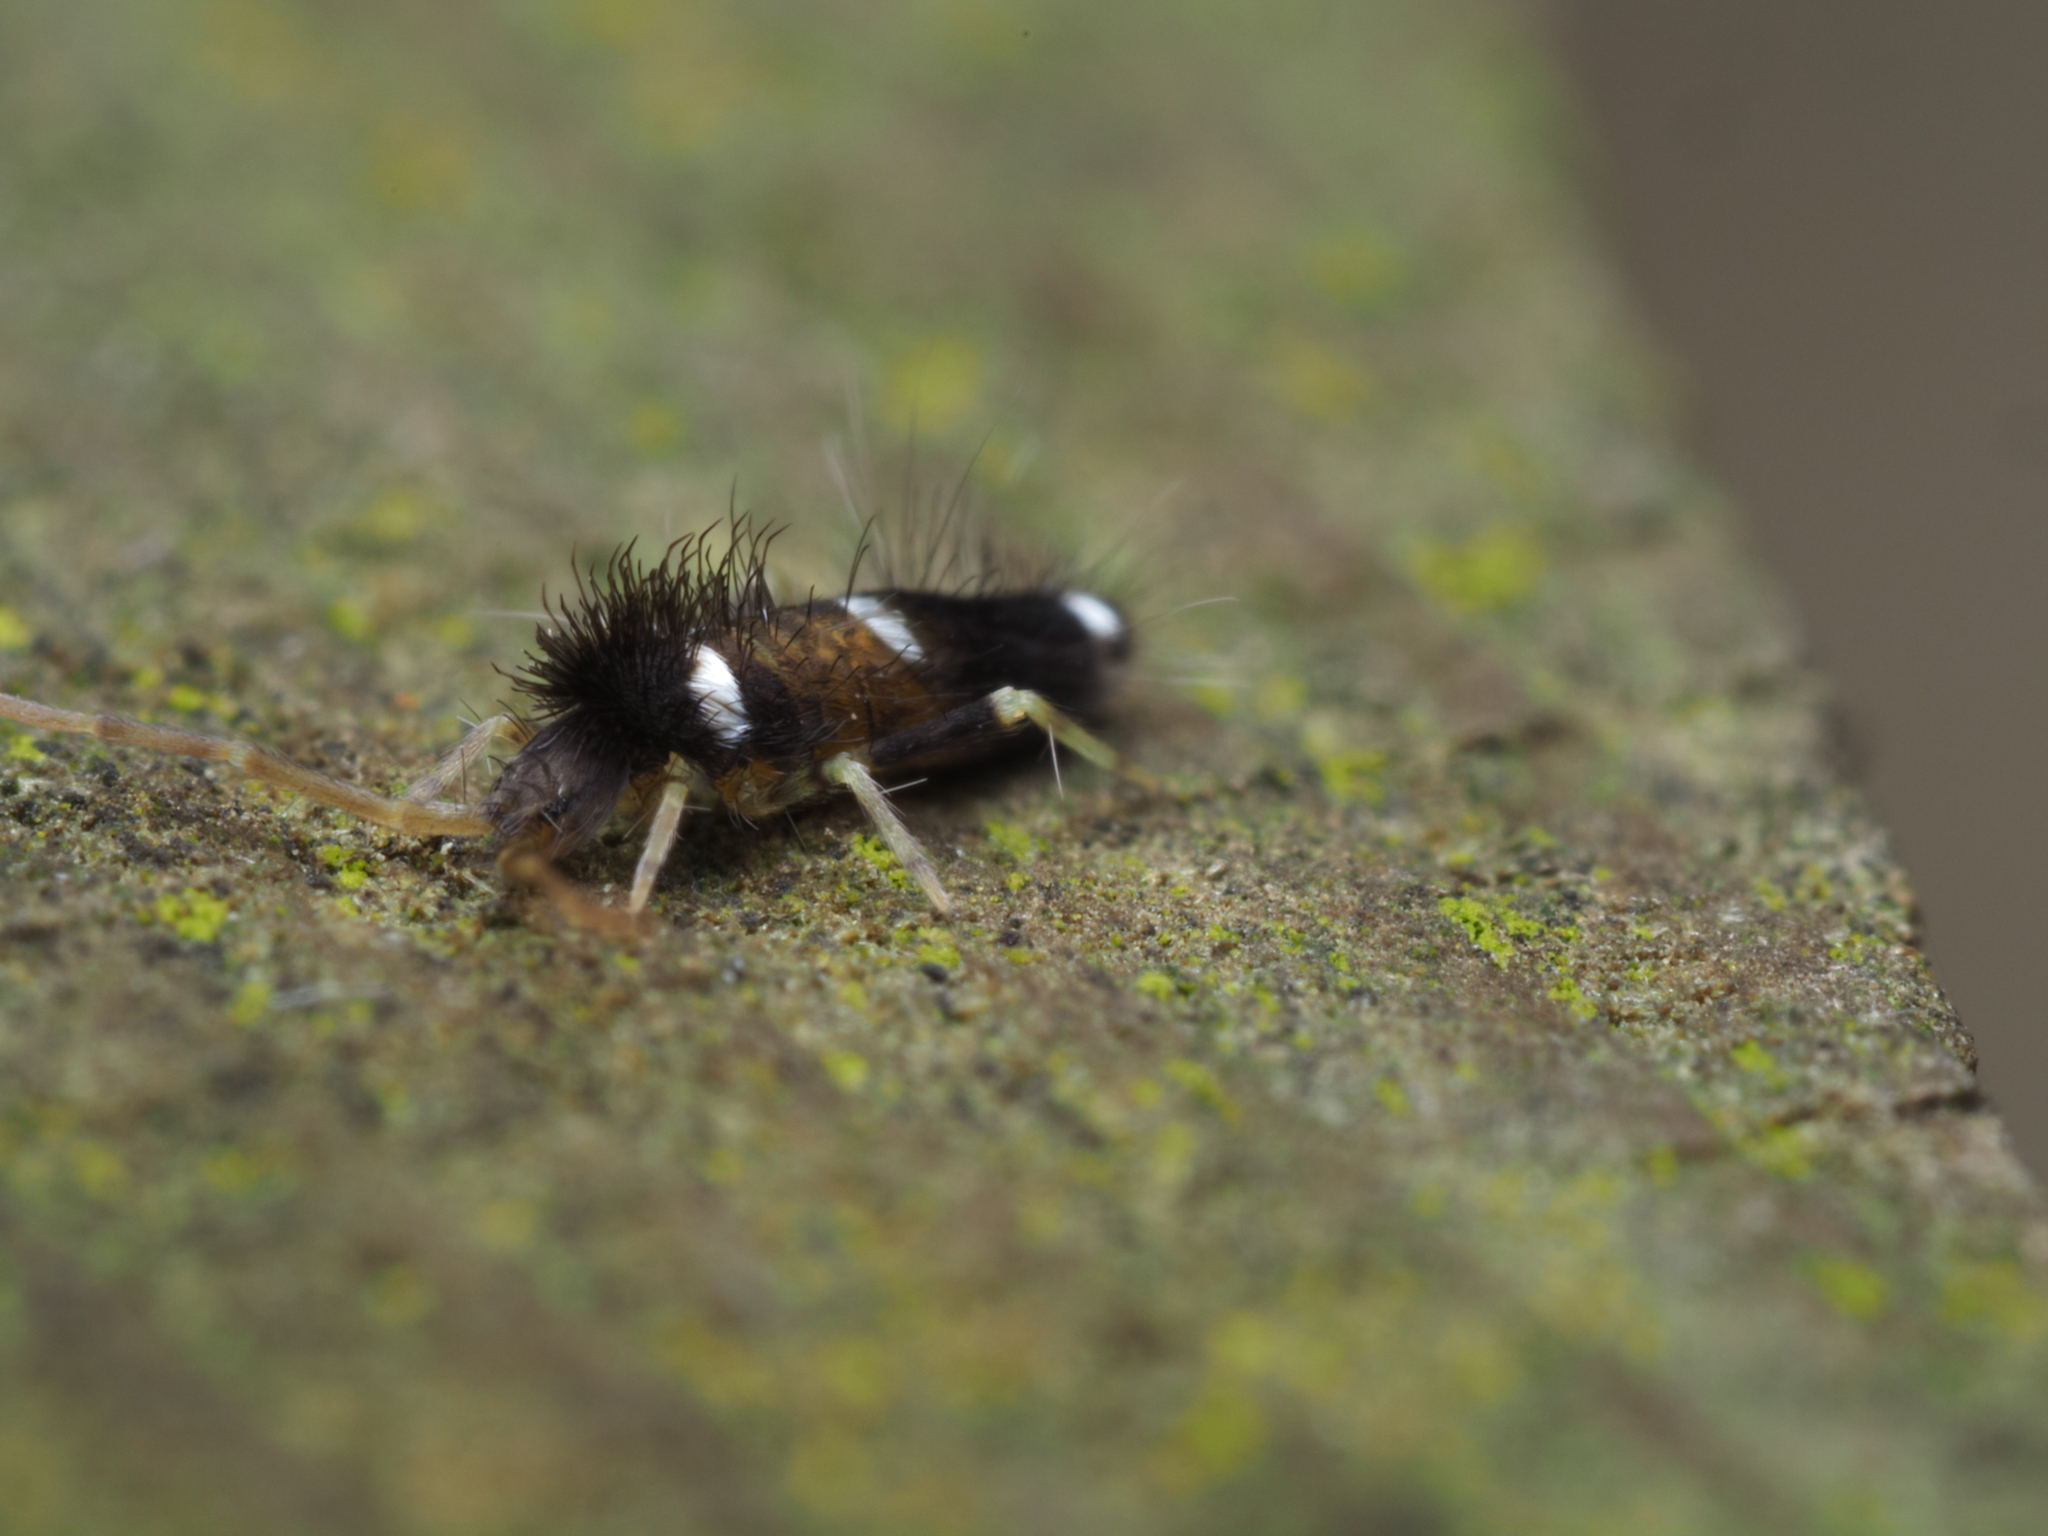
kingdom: Animalia
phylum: Arthropoda
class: Collembola
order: Entomobryomorpha
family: Entomobryidae
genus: Entomobrya
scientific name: Entomobrya dorsalis
